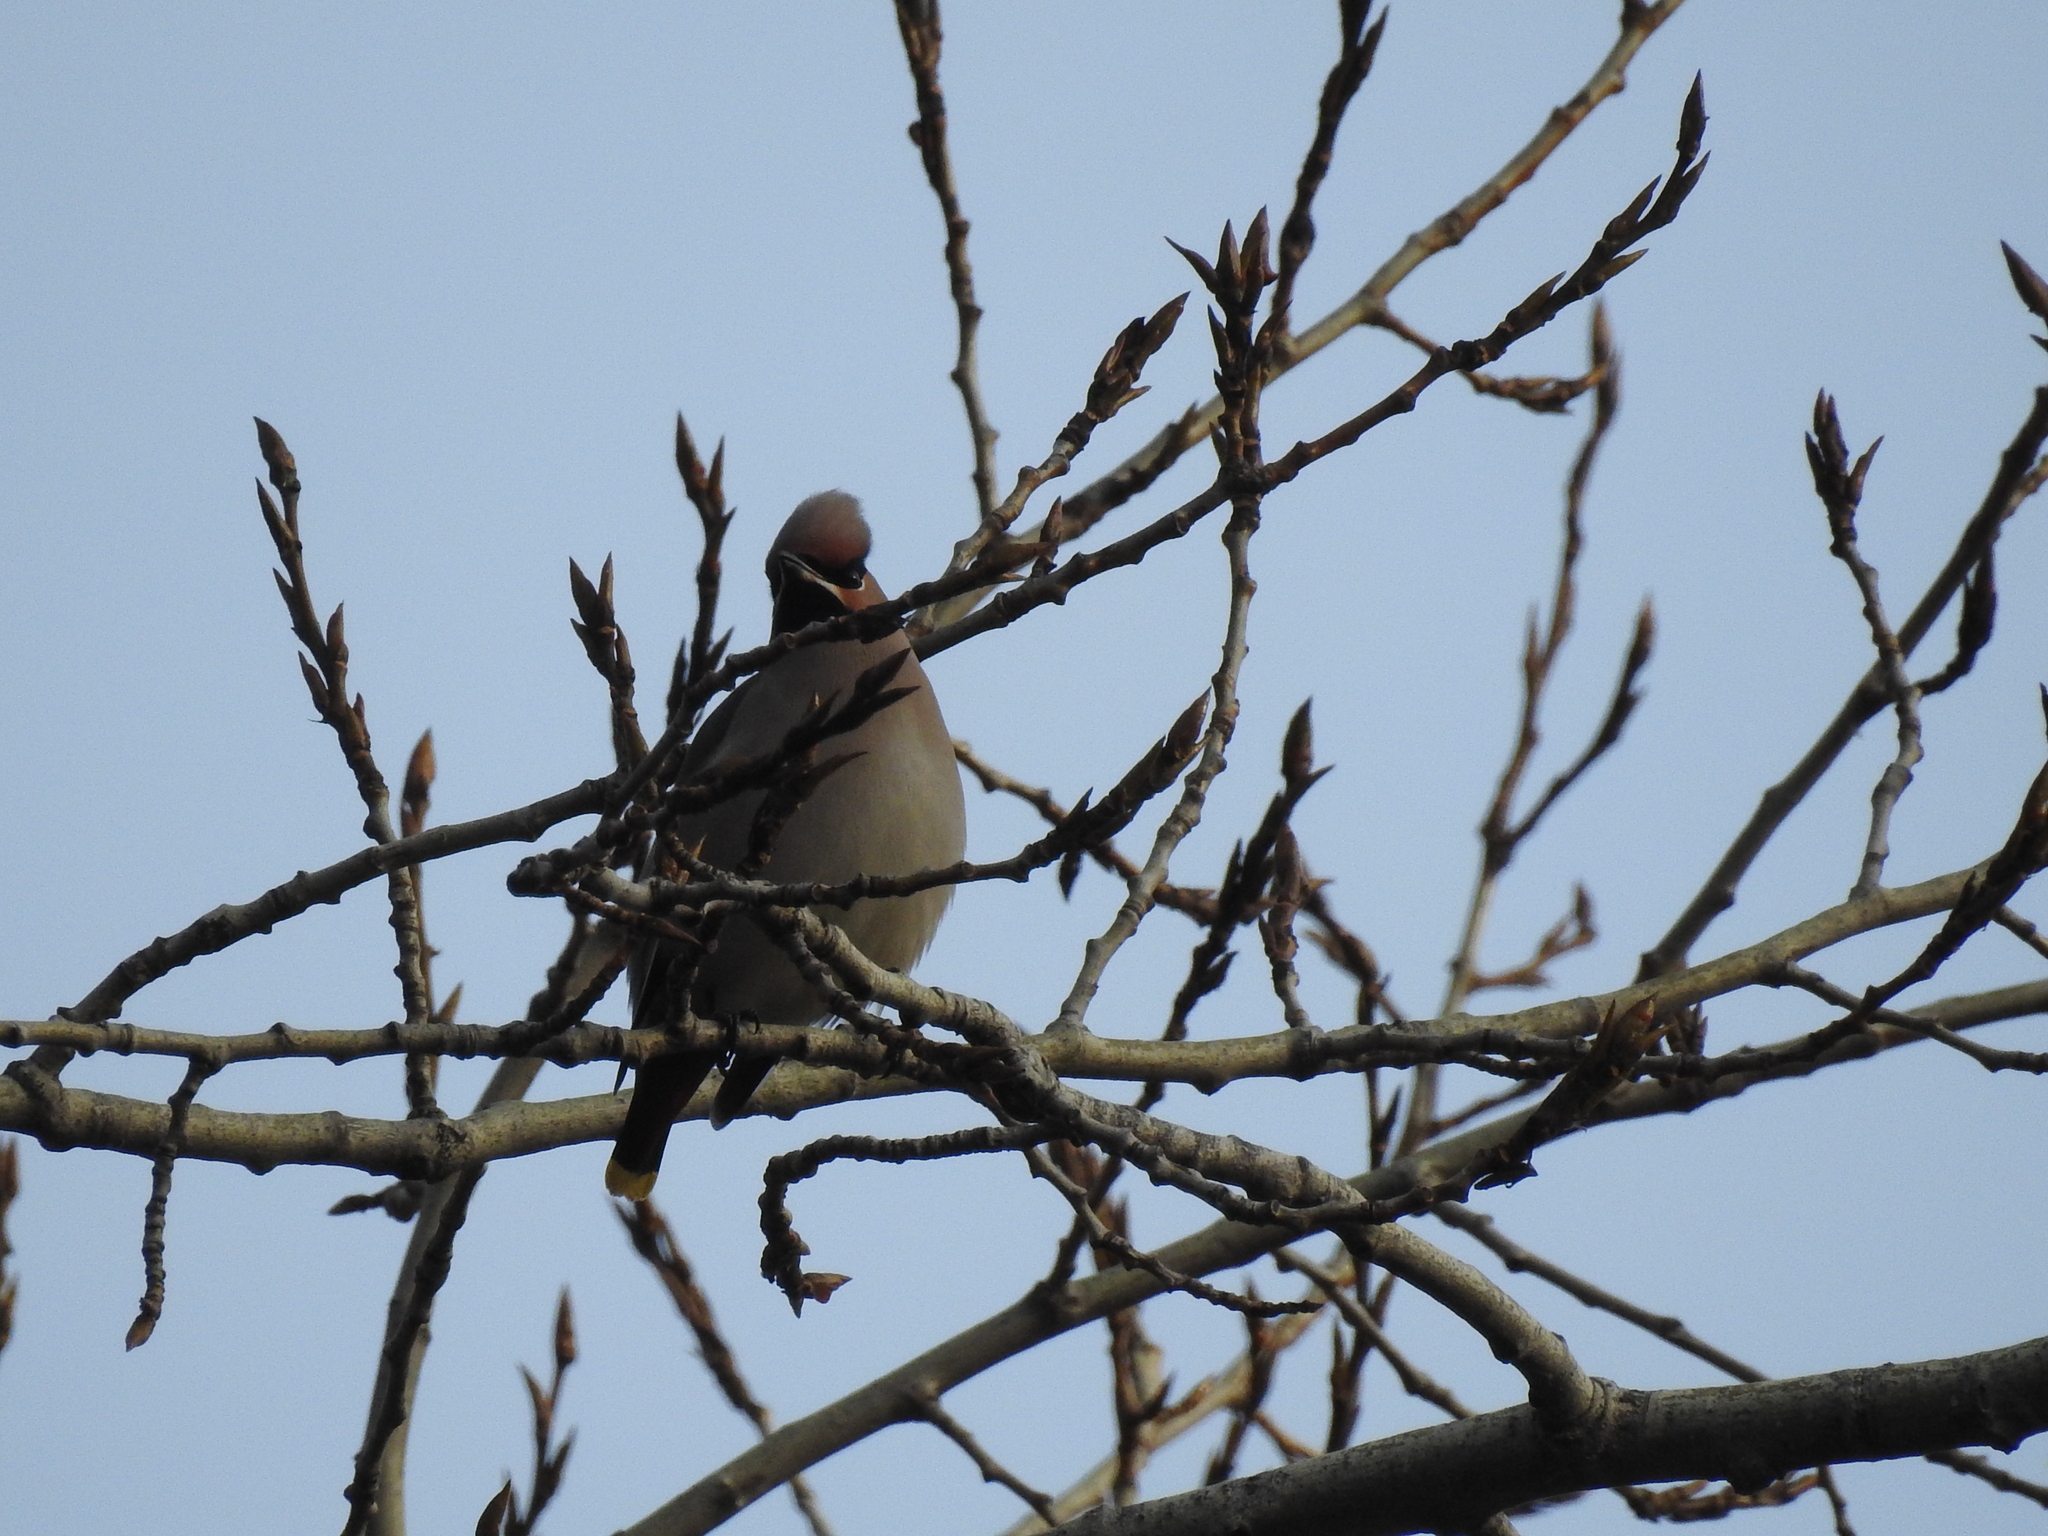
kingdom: Animalia
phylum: Chordata
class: Aves
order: Passeriformes
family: Bombycillidae
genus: Bombycilla
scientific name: Bombycilla garrulus
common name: Bohemian waxwing
